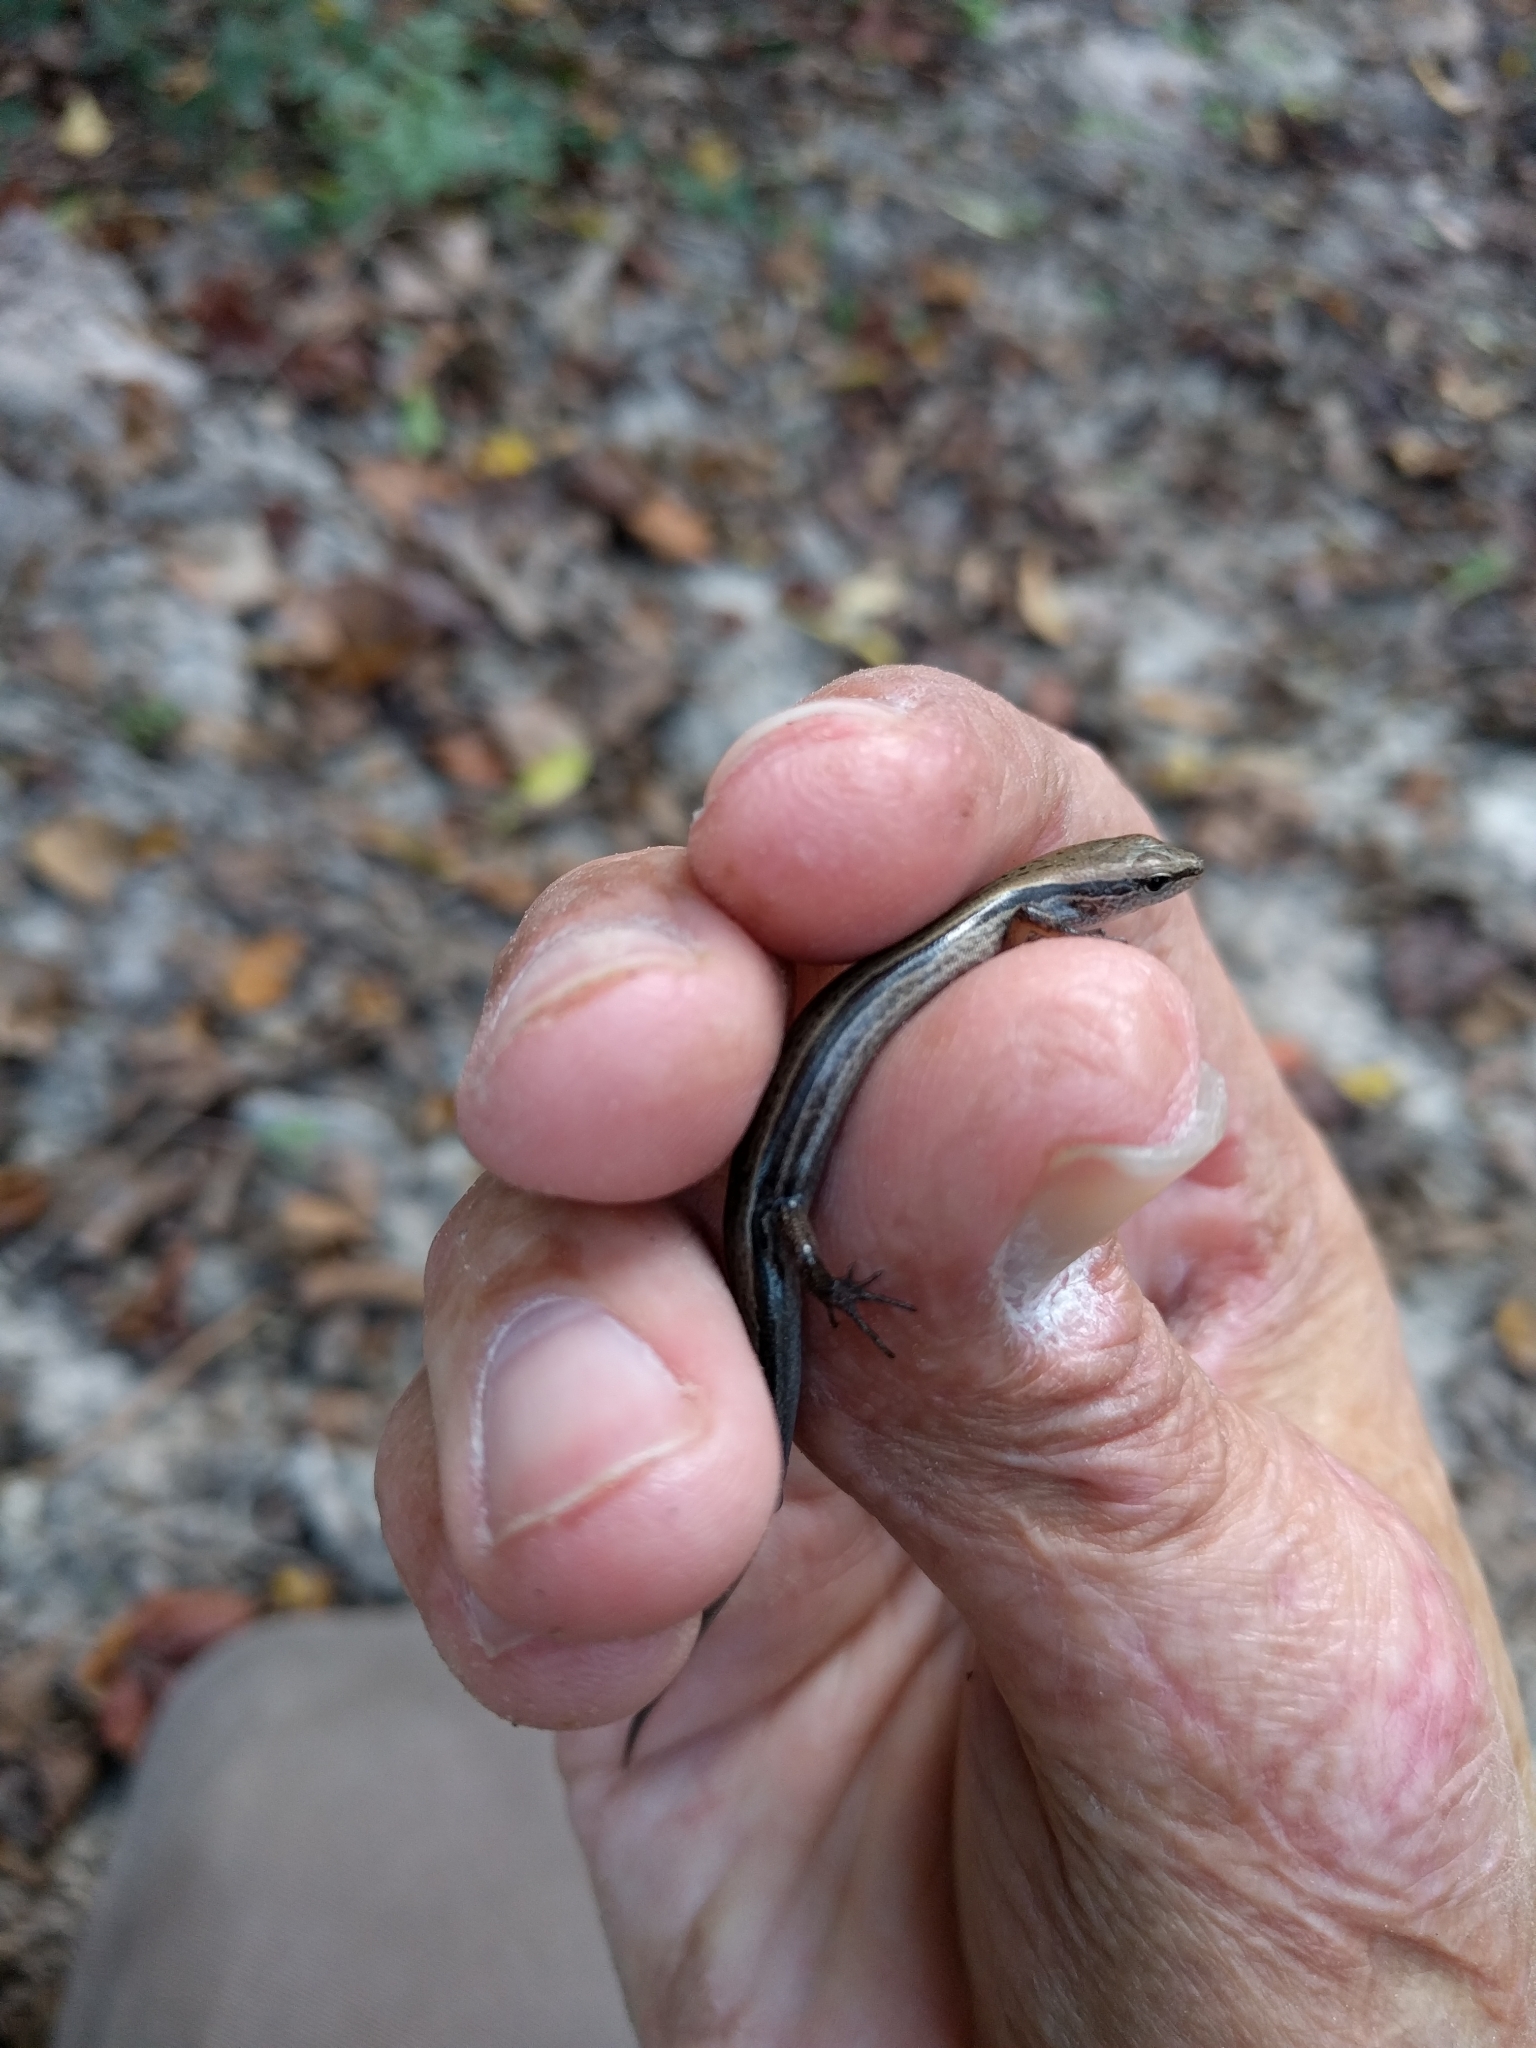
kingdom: Animalia
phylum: Chordata
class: Squamata
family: Scincidae
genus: Scincella
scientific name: Scincella lateralis
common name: Ground skink
